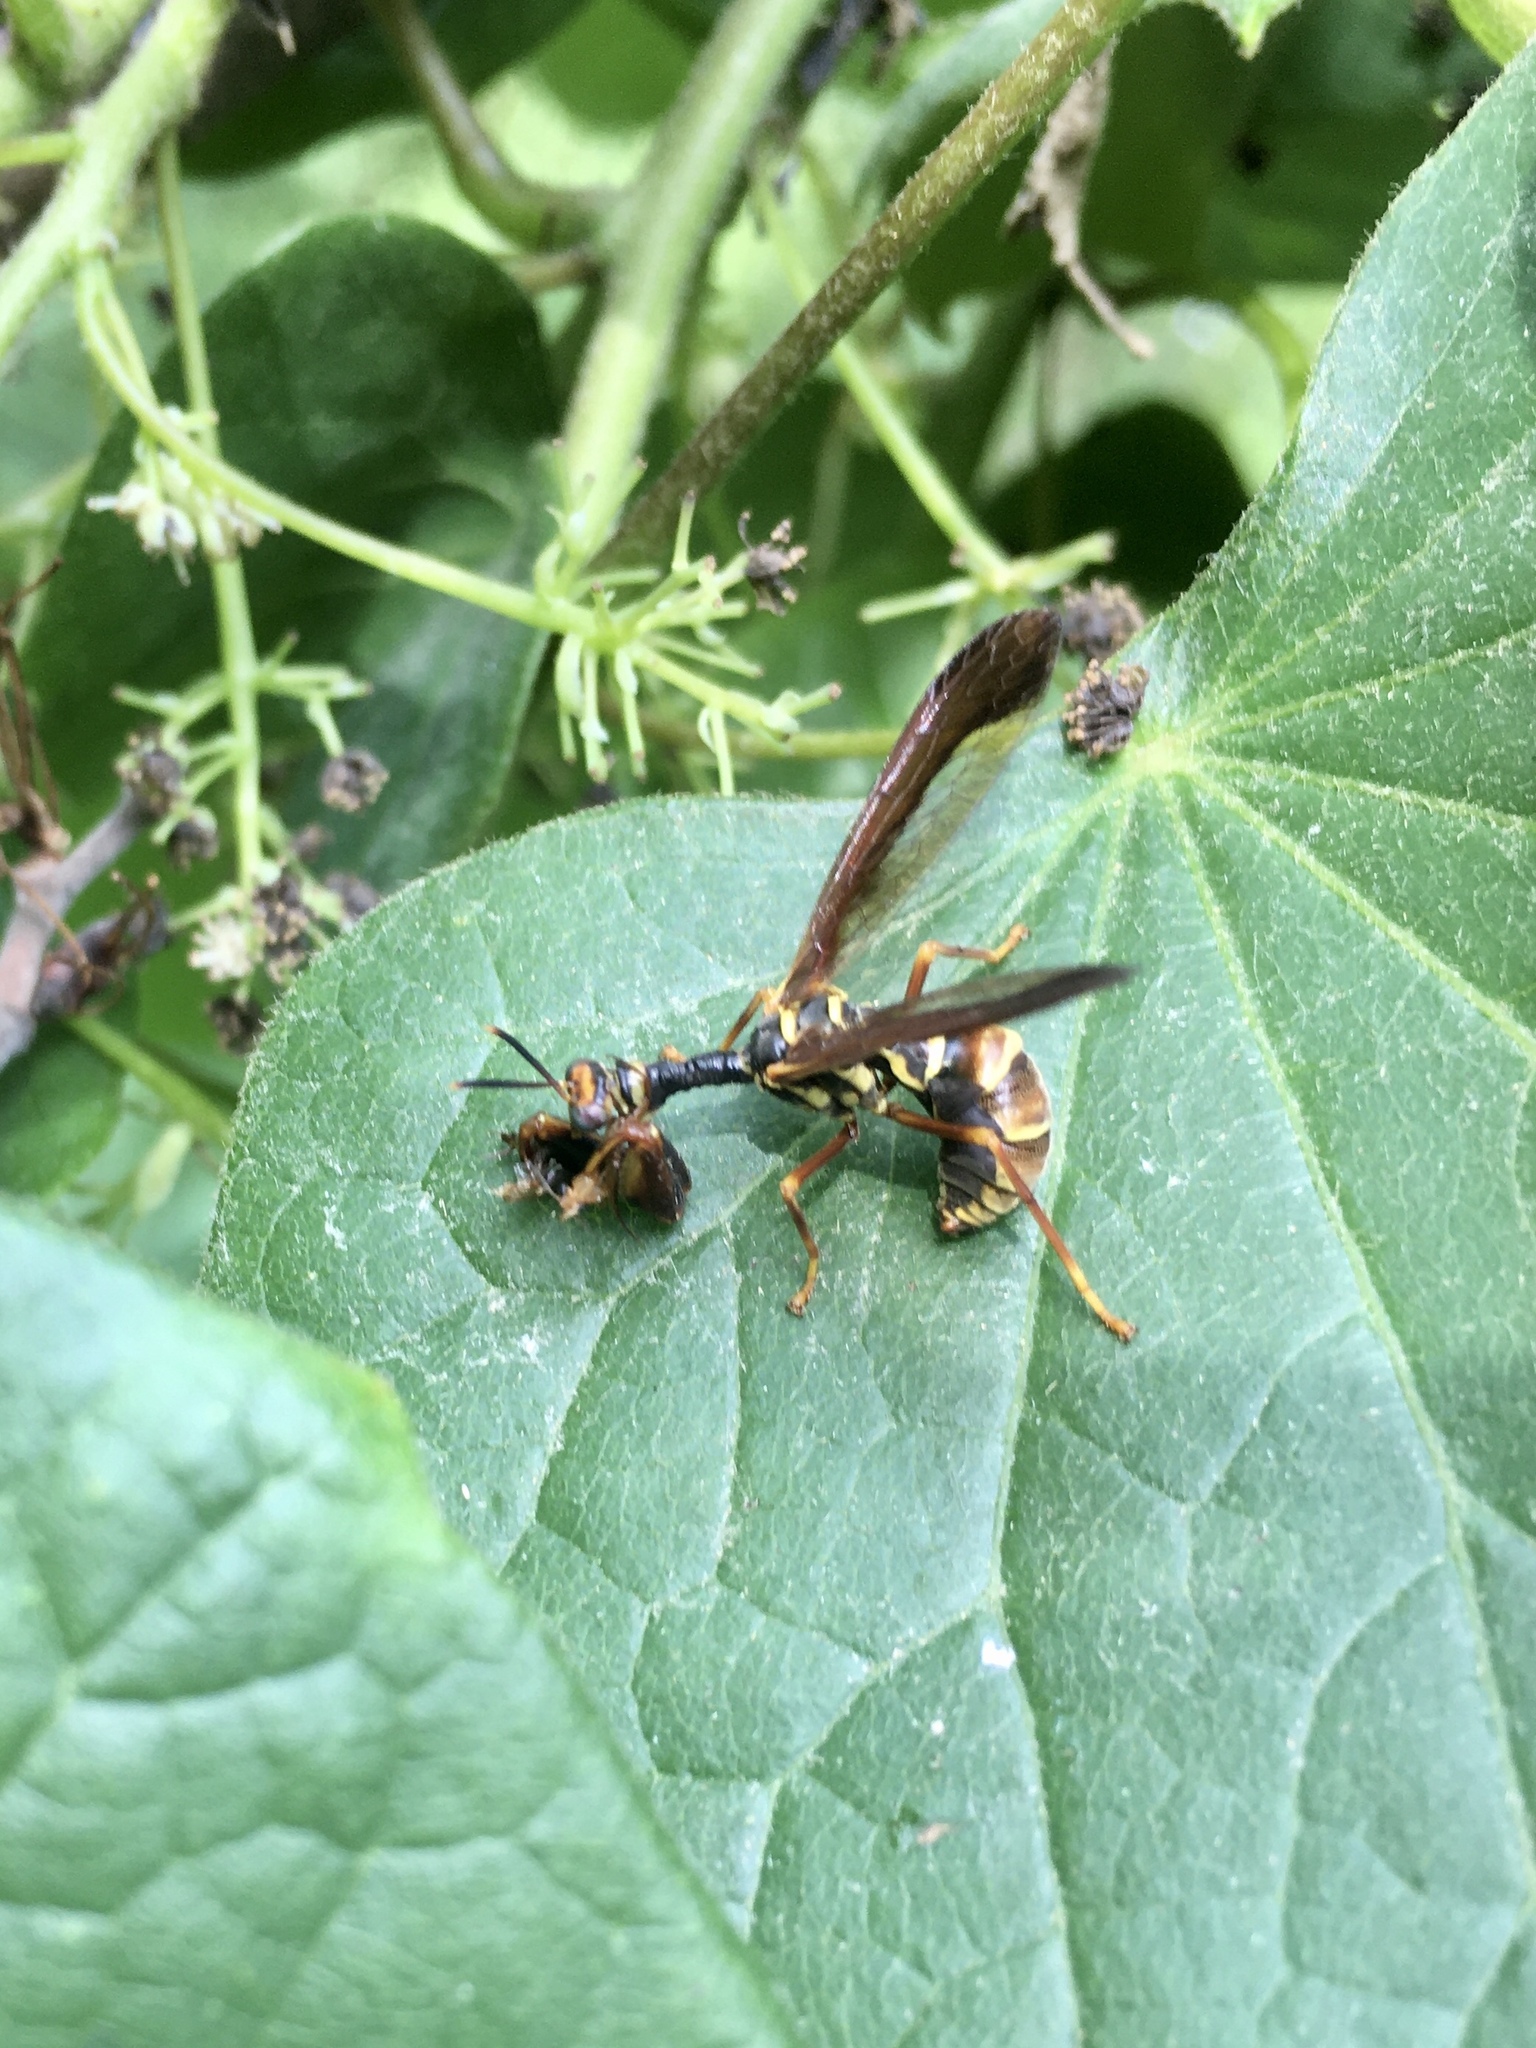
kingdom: Animalia
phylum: Arthropoda
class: Insecta
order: Neuroptera
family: Mantispidae
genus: Climaciella
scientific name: Climaciella brunnea
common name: Brown wasp mantidfly
